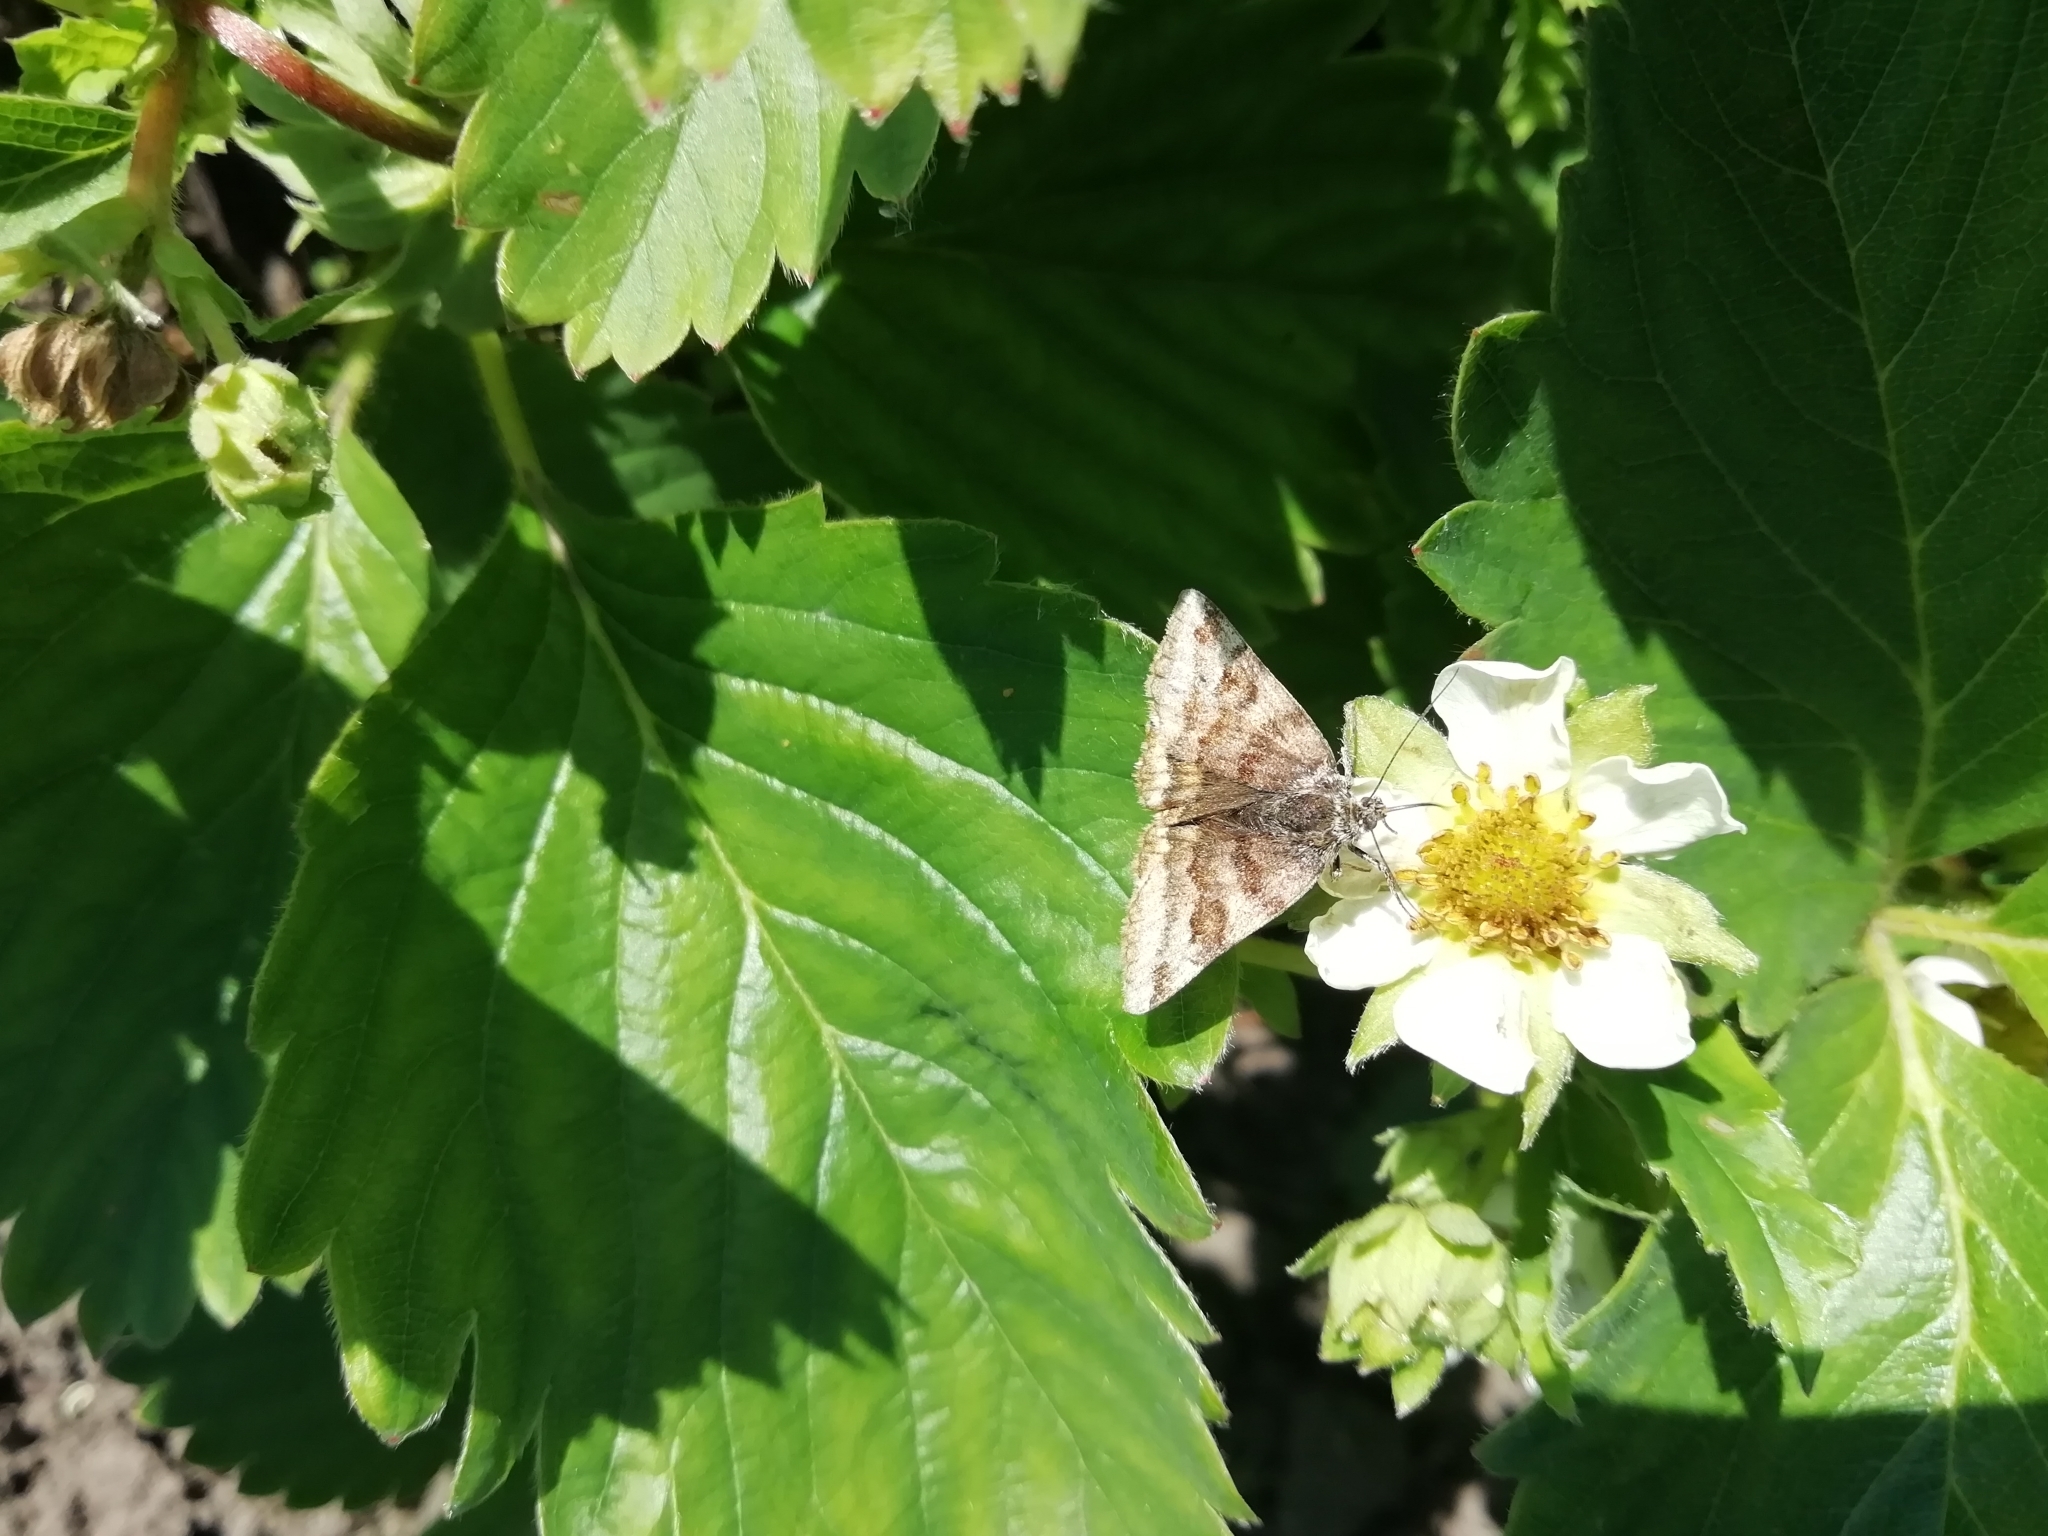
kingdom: Animalia
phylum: Arthropoda
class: Insecta
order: Lepidoptera
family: Erebidae
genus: Euclidia
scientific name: Euclidia glyphica
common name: Burnet companion
